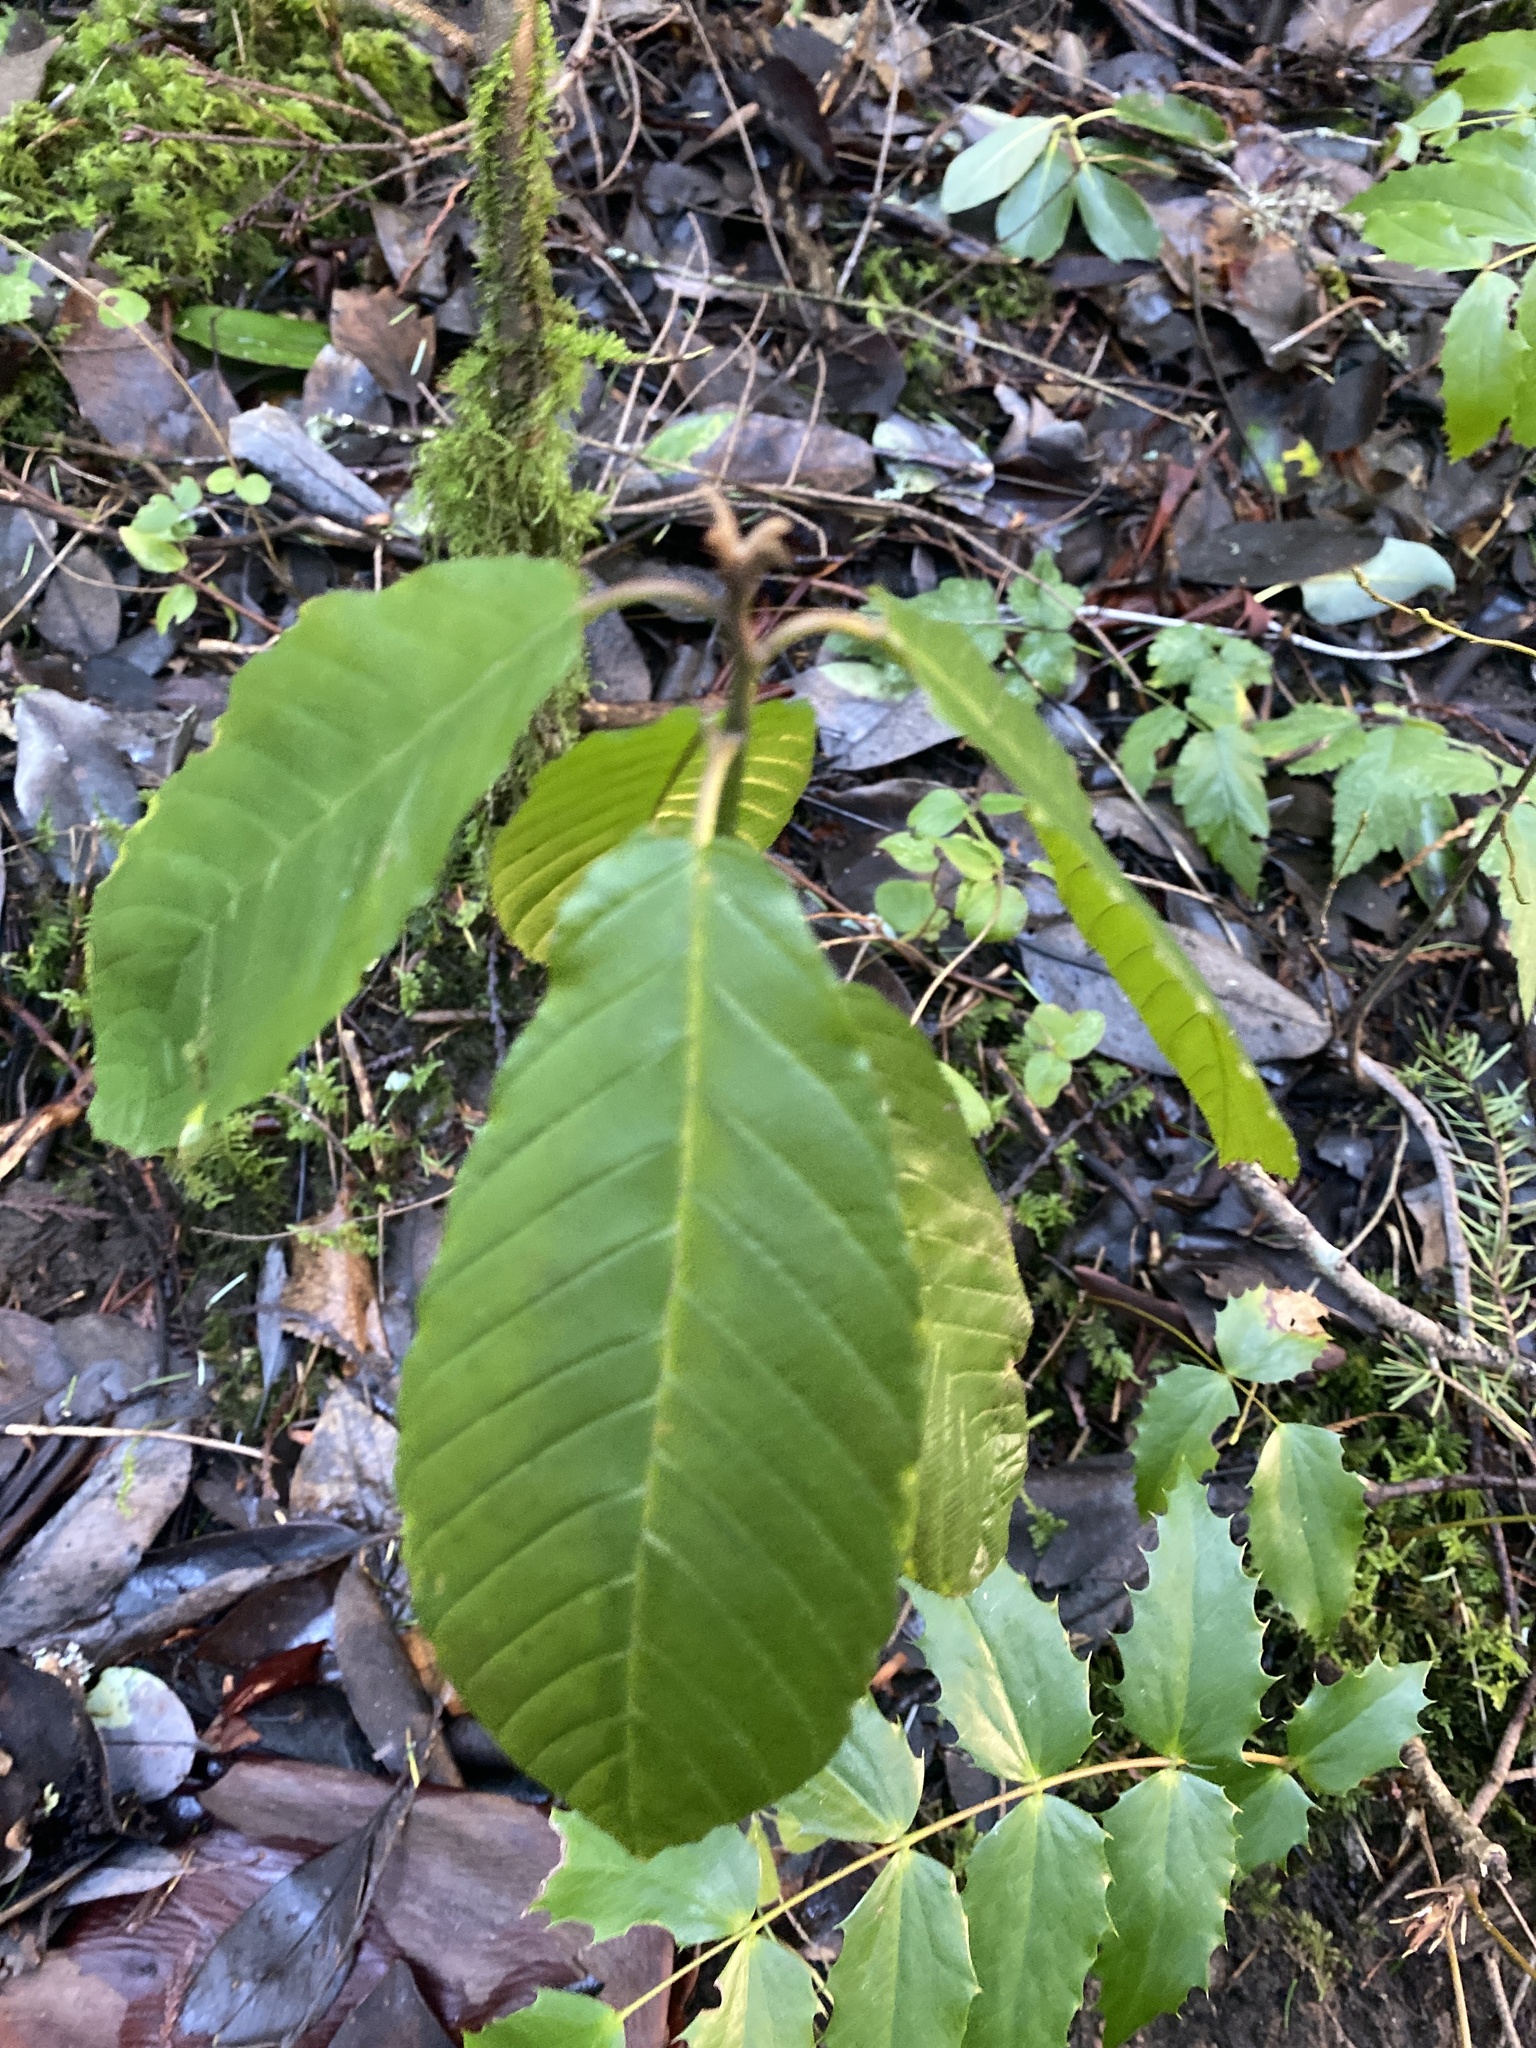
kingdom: Plantae
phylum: Tracheophyta
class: Magnoliopsida
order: Rosales
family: Rhamnaceae
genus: Frangula
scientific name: Frangula purshiana
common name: Cascara buckthorn
